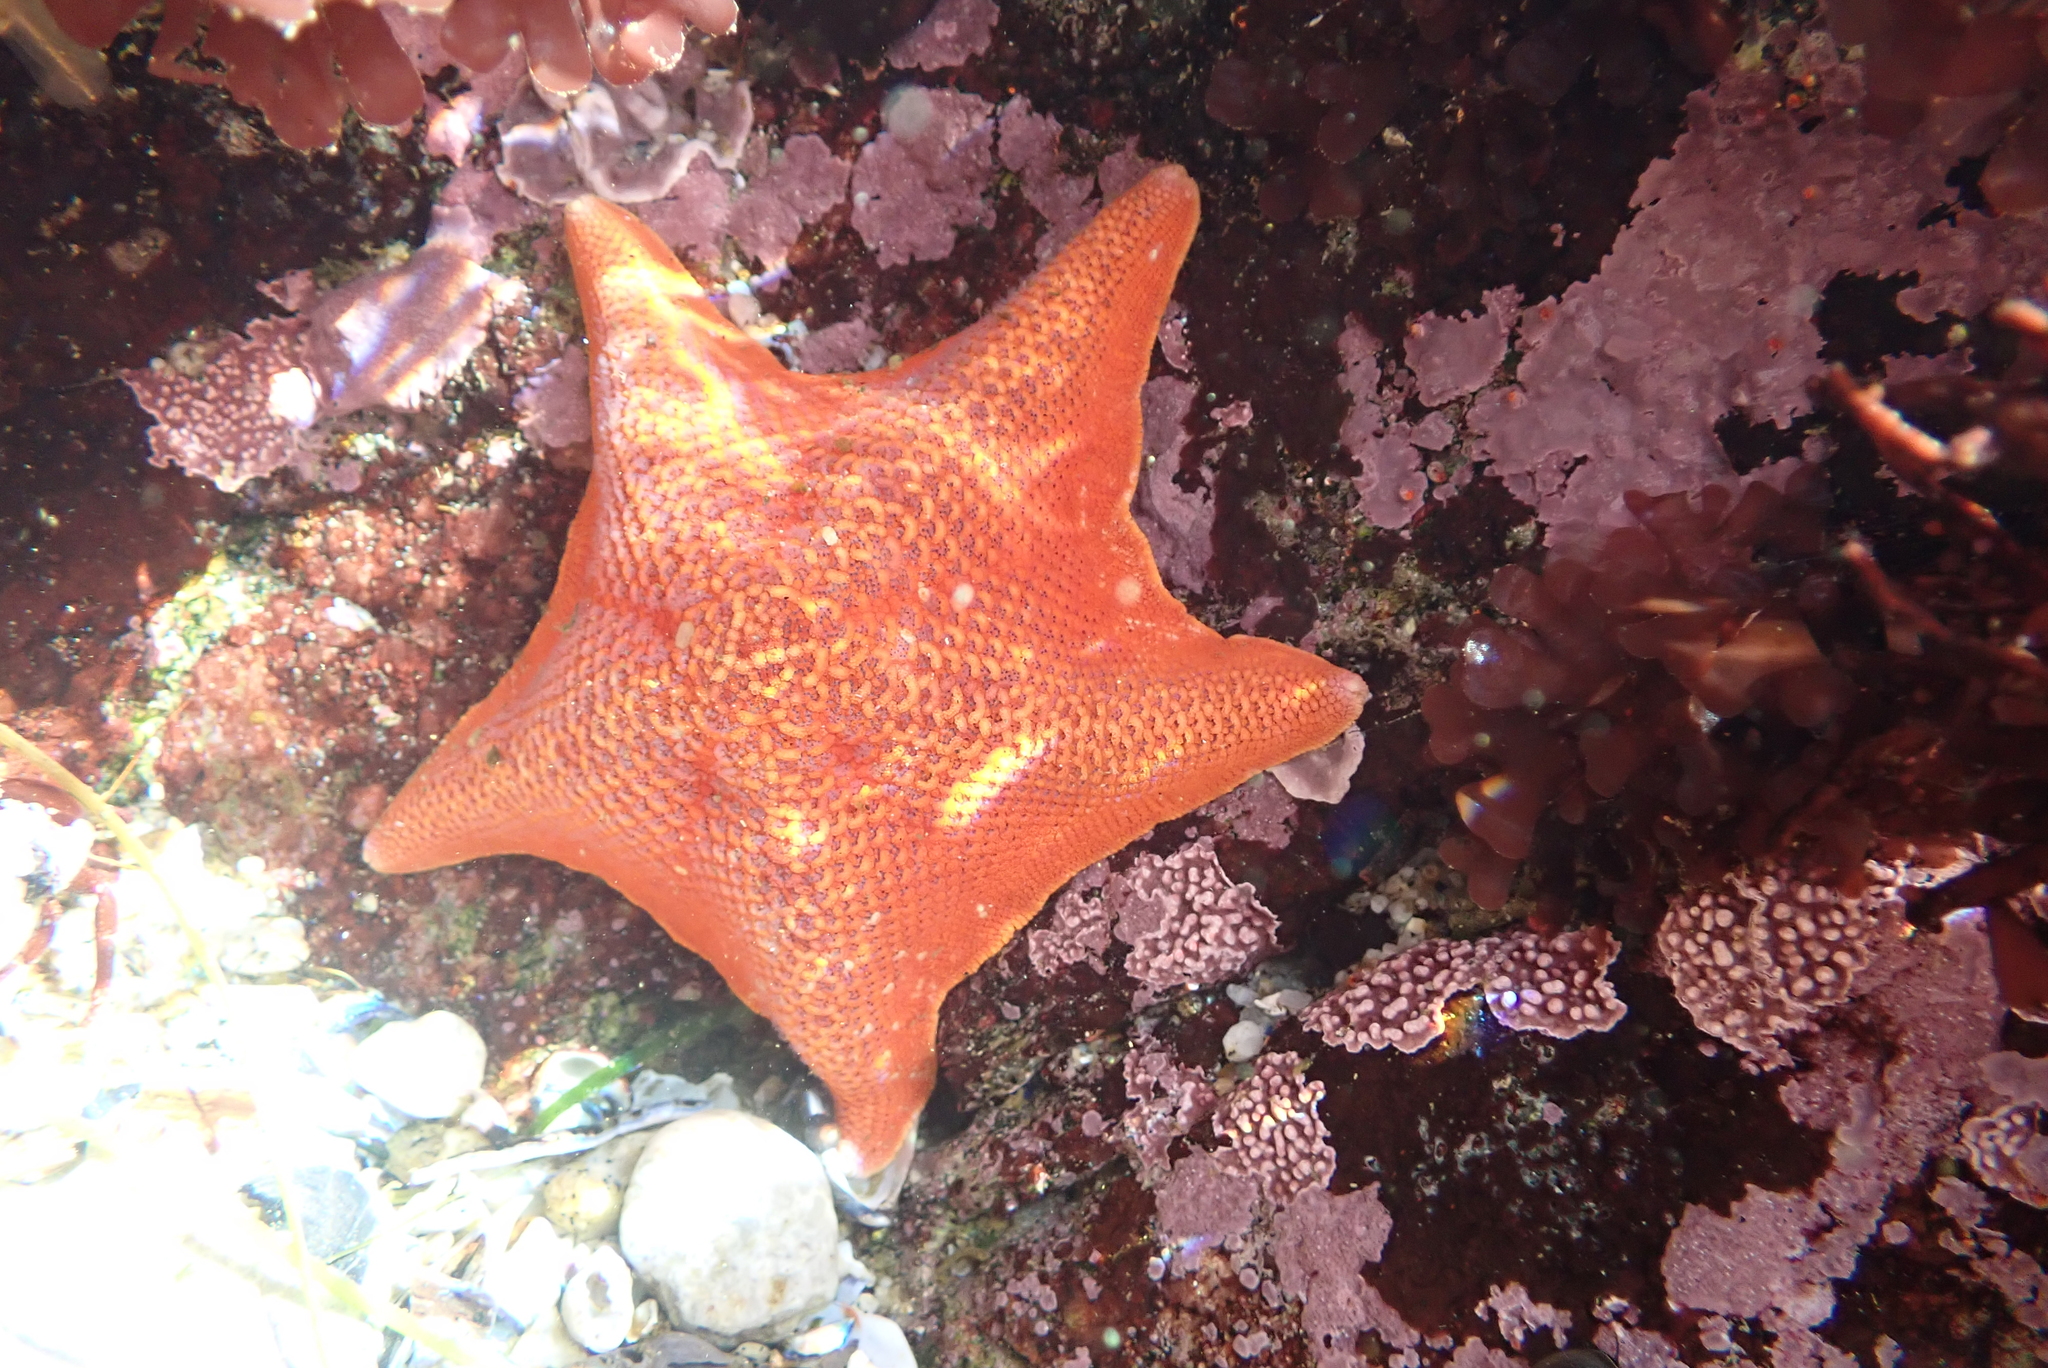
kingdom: Animalia
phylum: Echinodermata
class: Asteroidea
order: Valvatida
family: Asterinidae
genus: Patiria
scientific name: Patiria miniata
